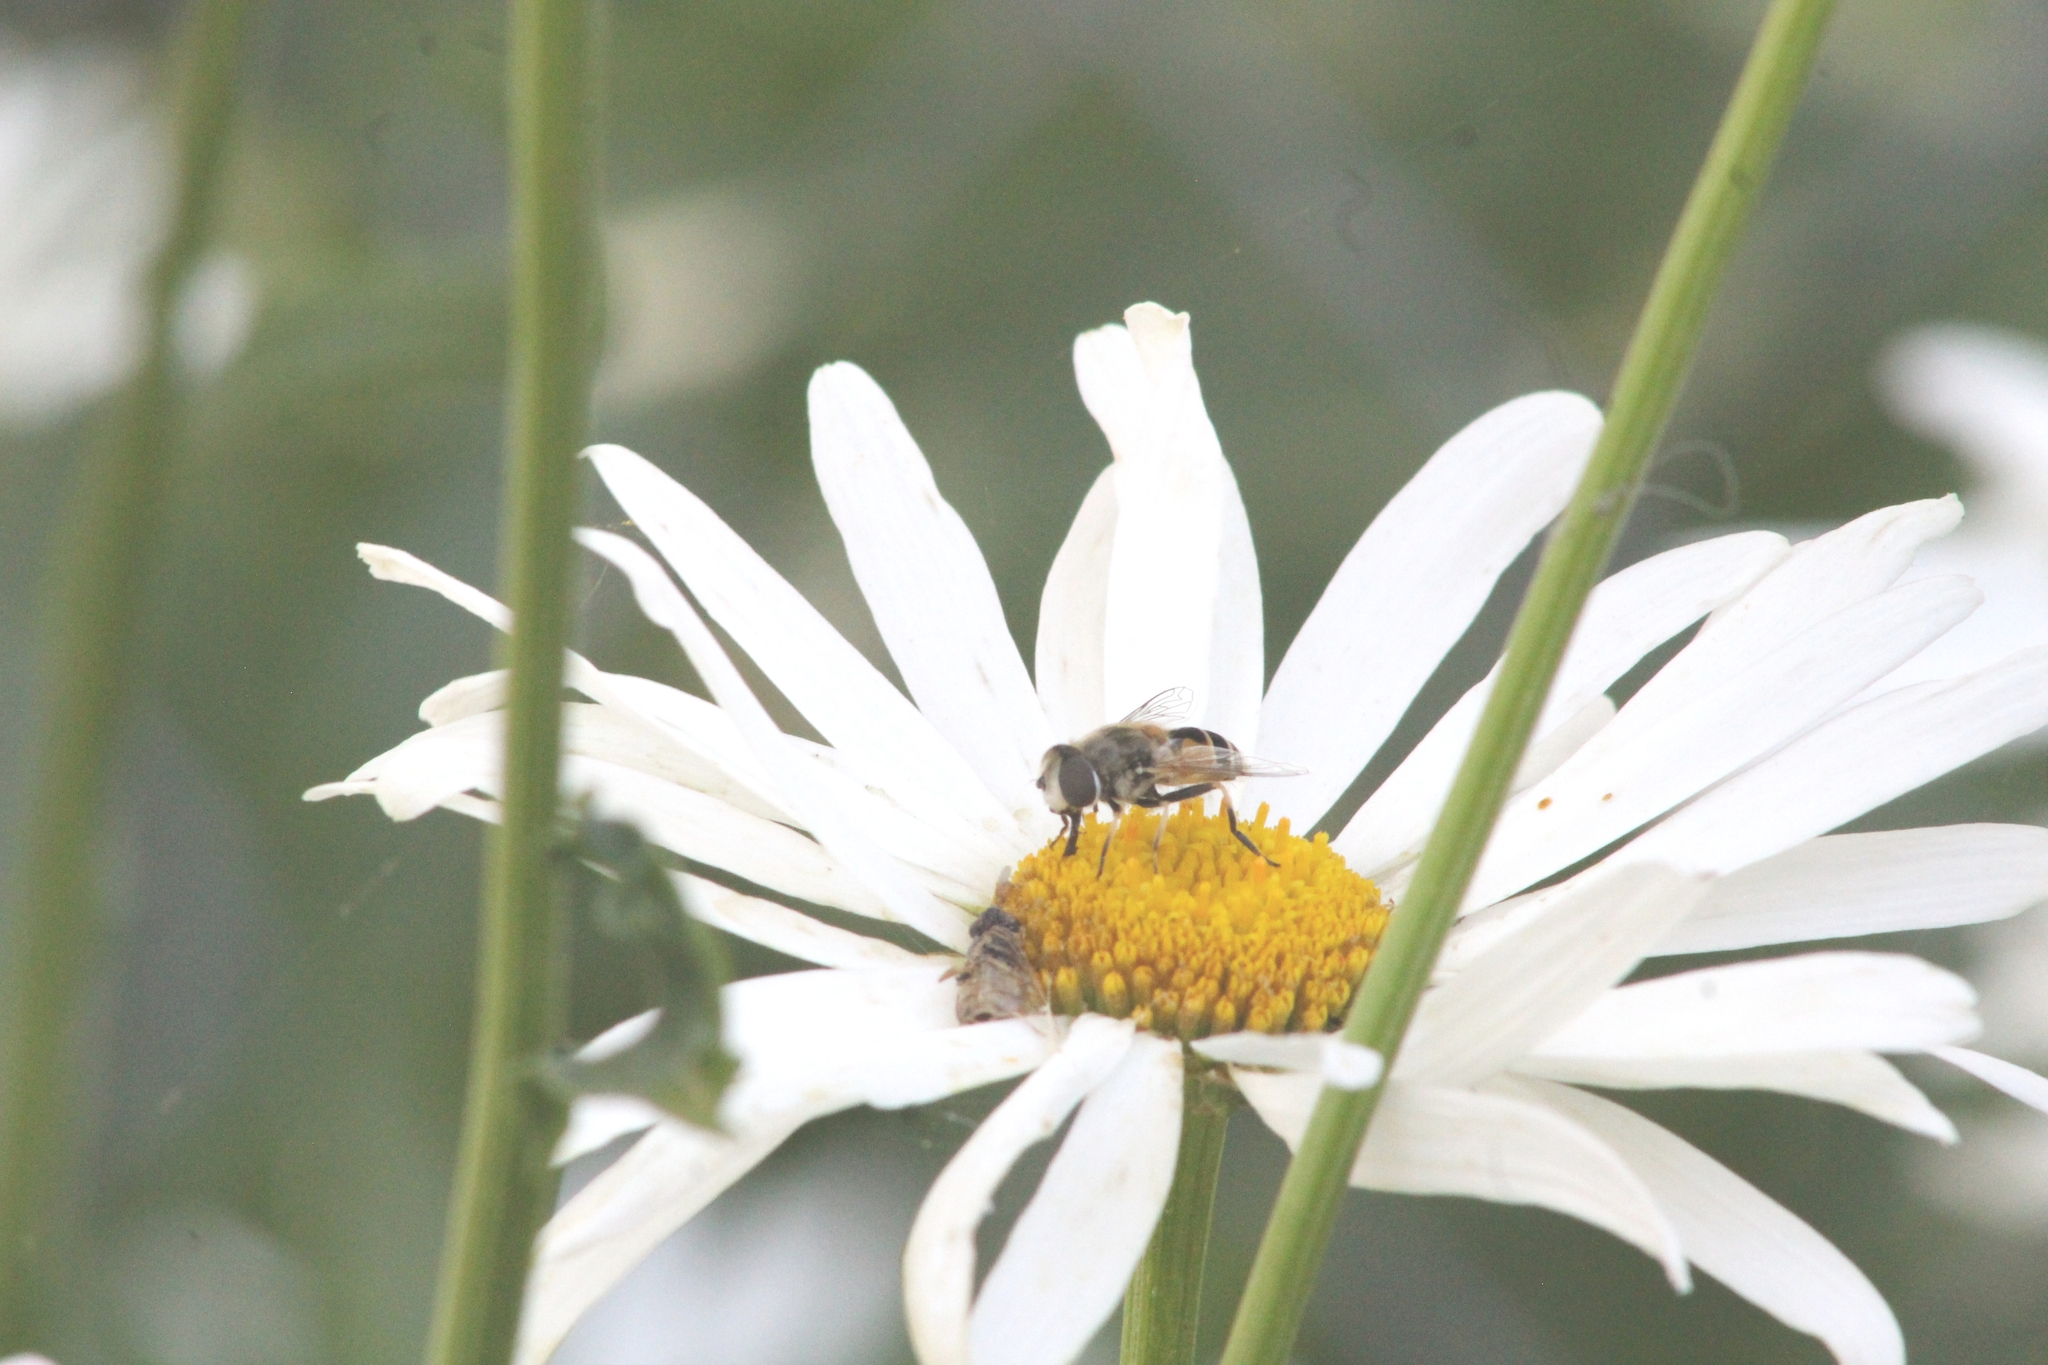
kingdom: Animalia
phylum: Arthropoda
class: Insecta
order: Diptera
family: Syrphidae
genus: Eristalis
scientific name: Eristalis arbustorum
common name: Hover fly
